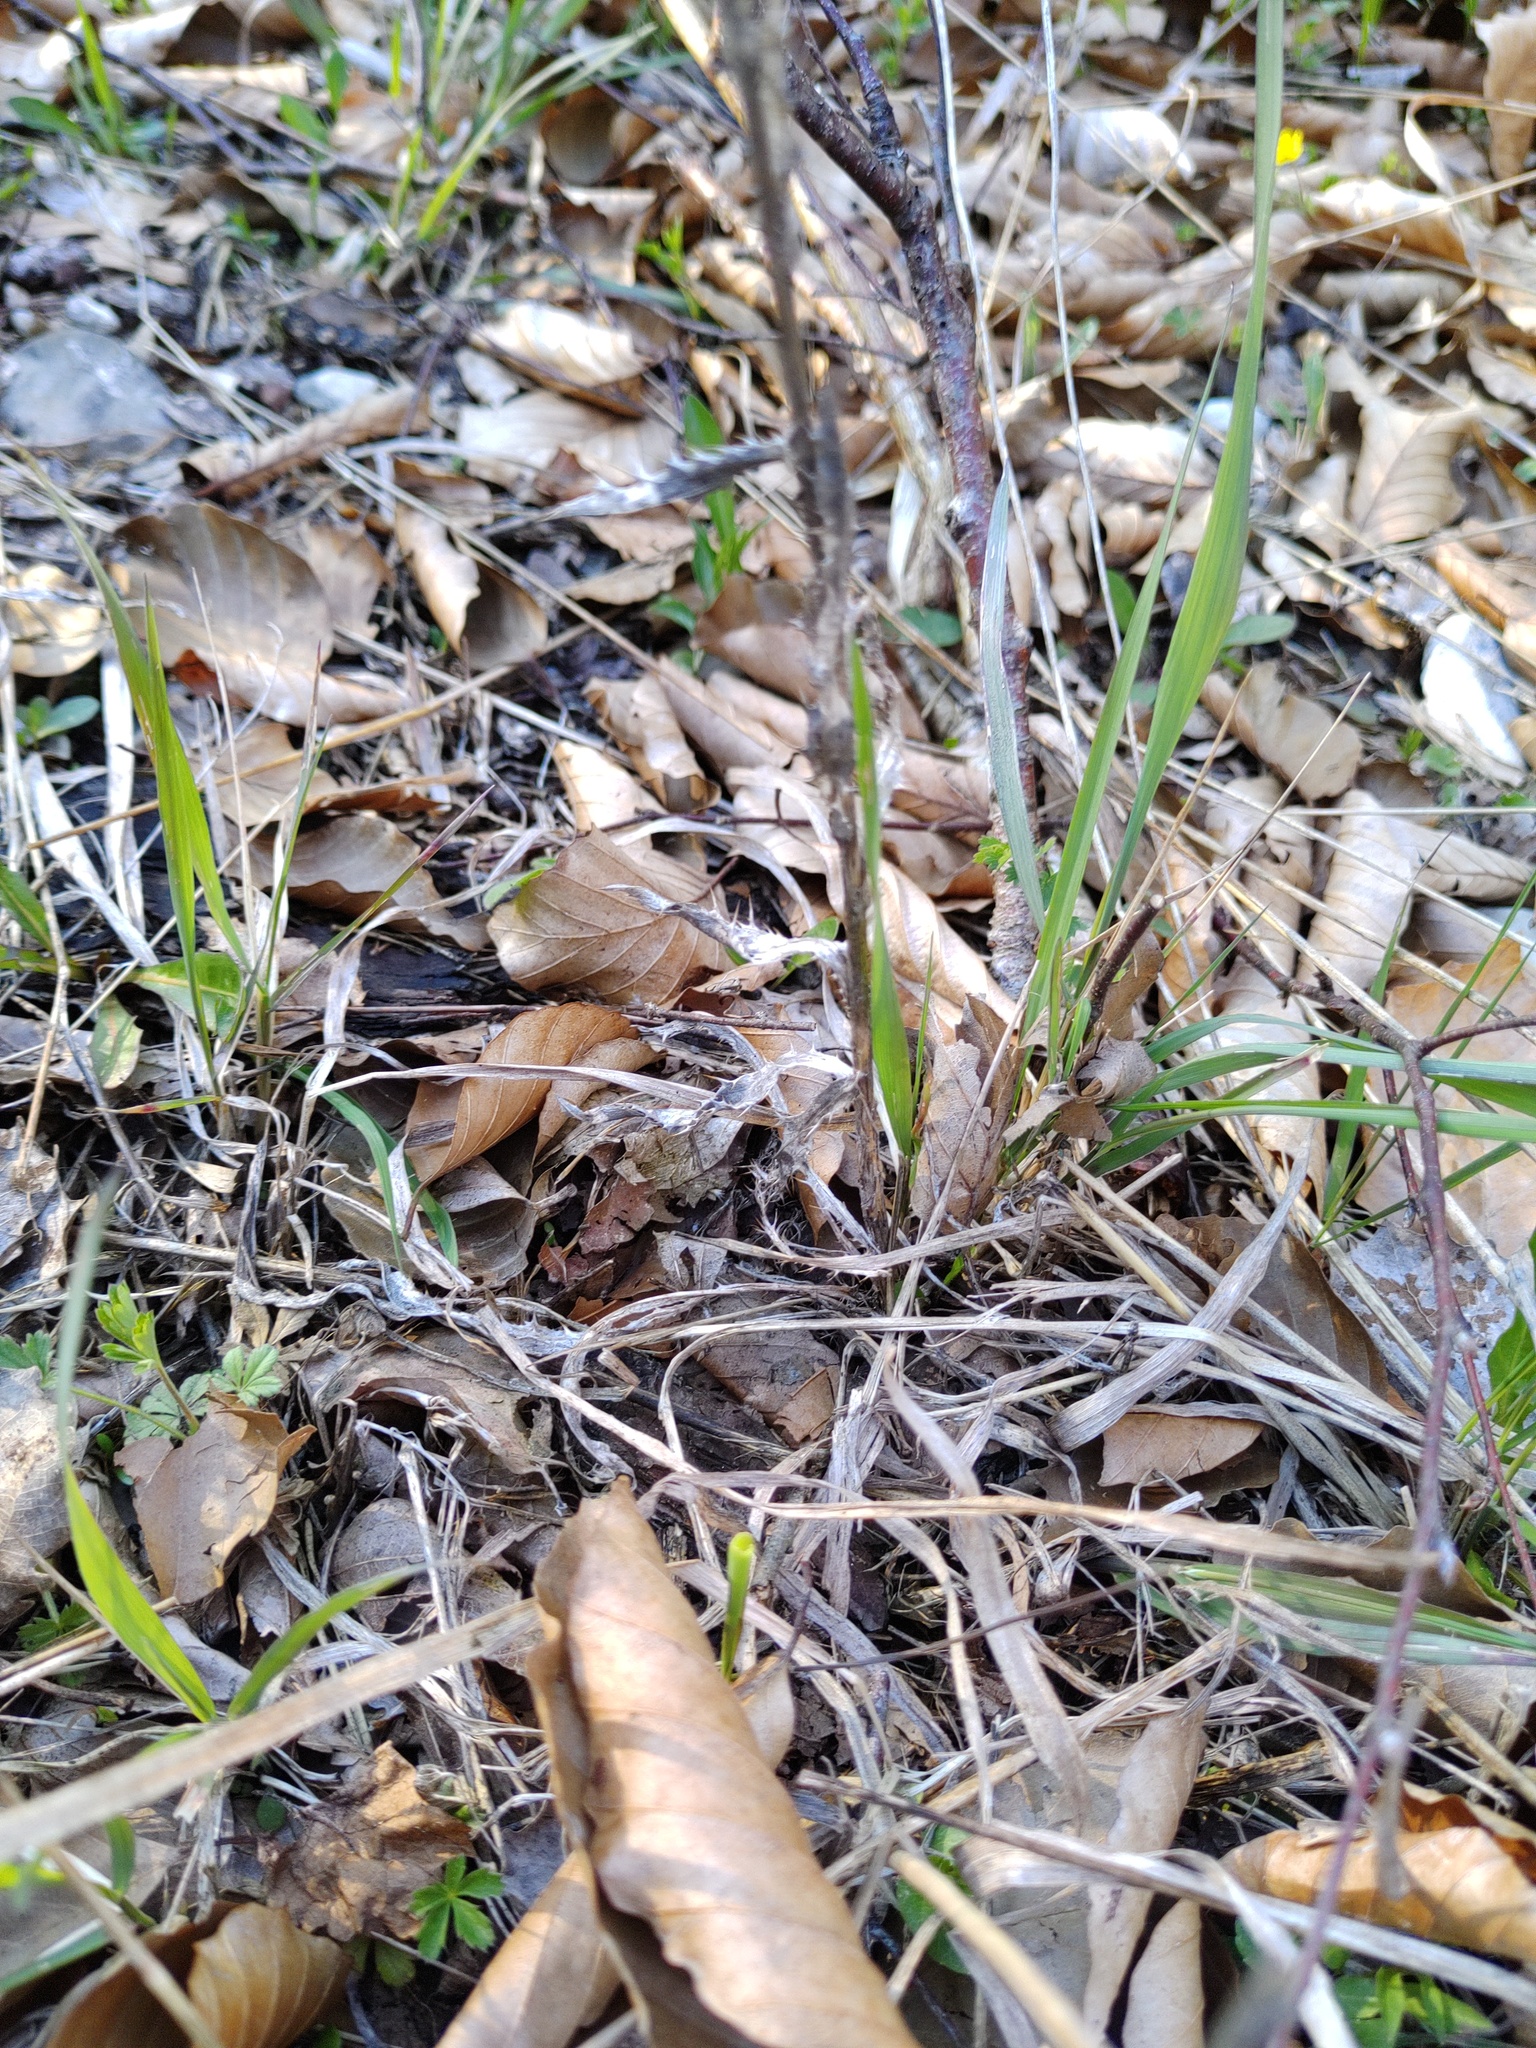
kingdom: Plantae
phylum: Tracheophyta
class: Magnoliopsida
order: Asterales
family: Asteraceae
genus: Carlina
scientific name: Carlina vulgaris
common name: Carline thistle
